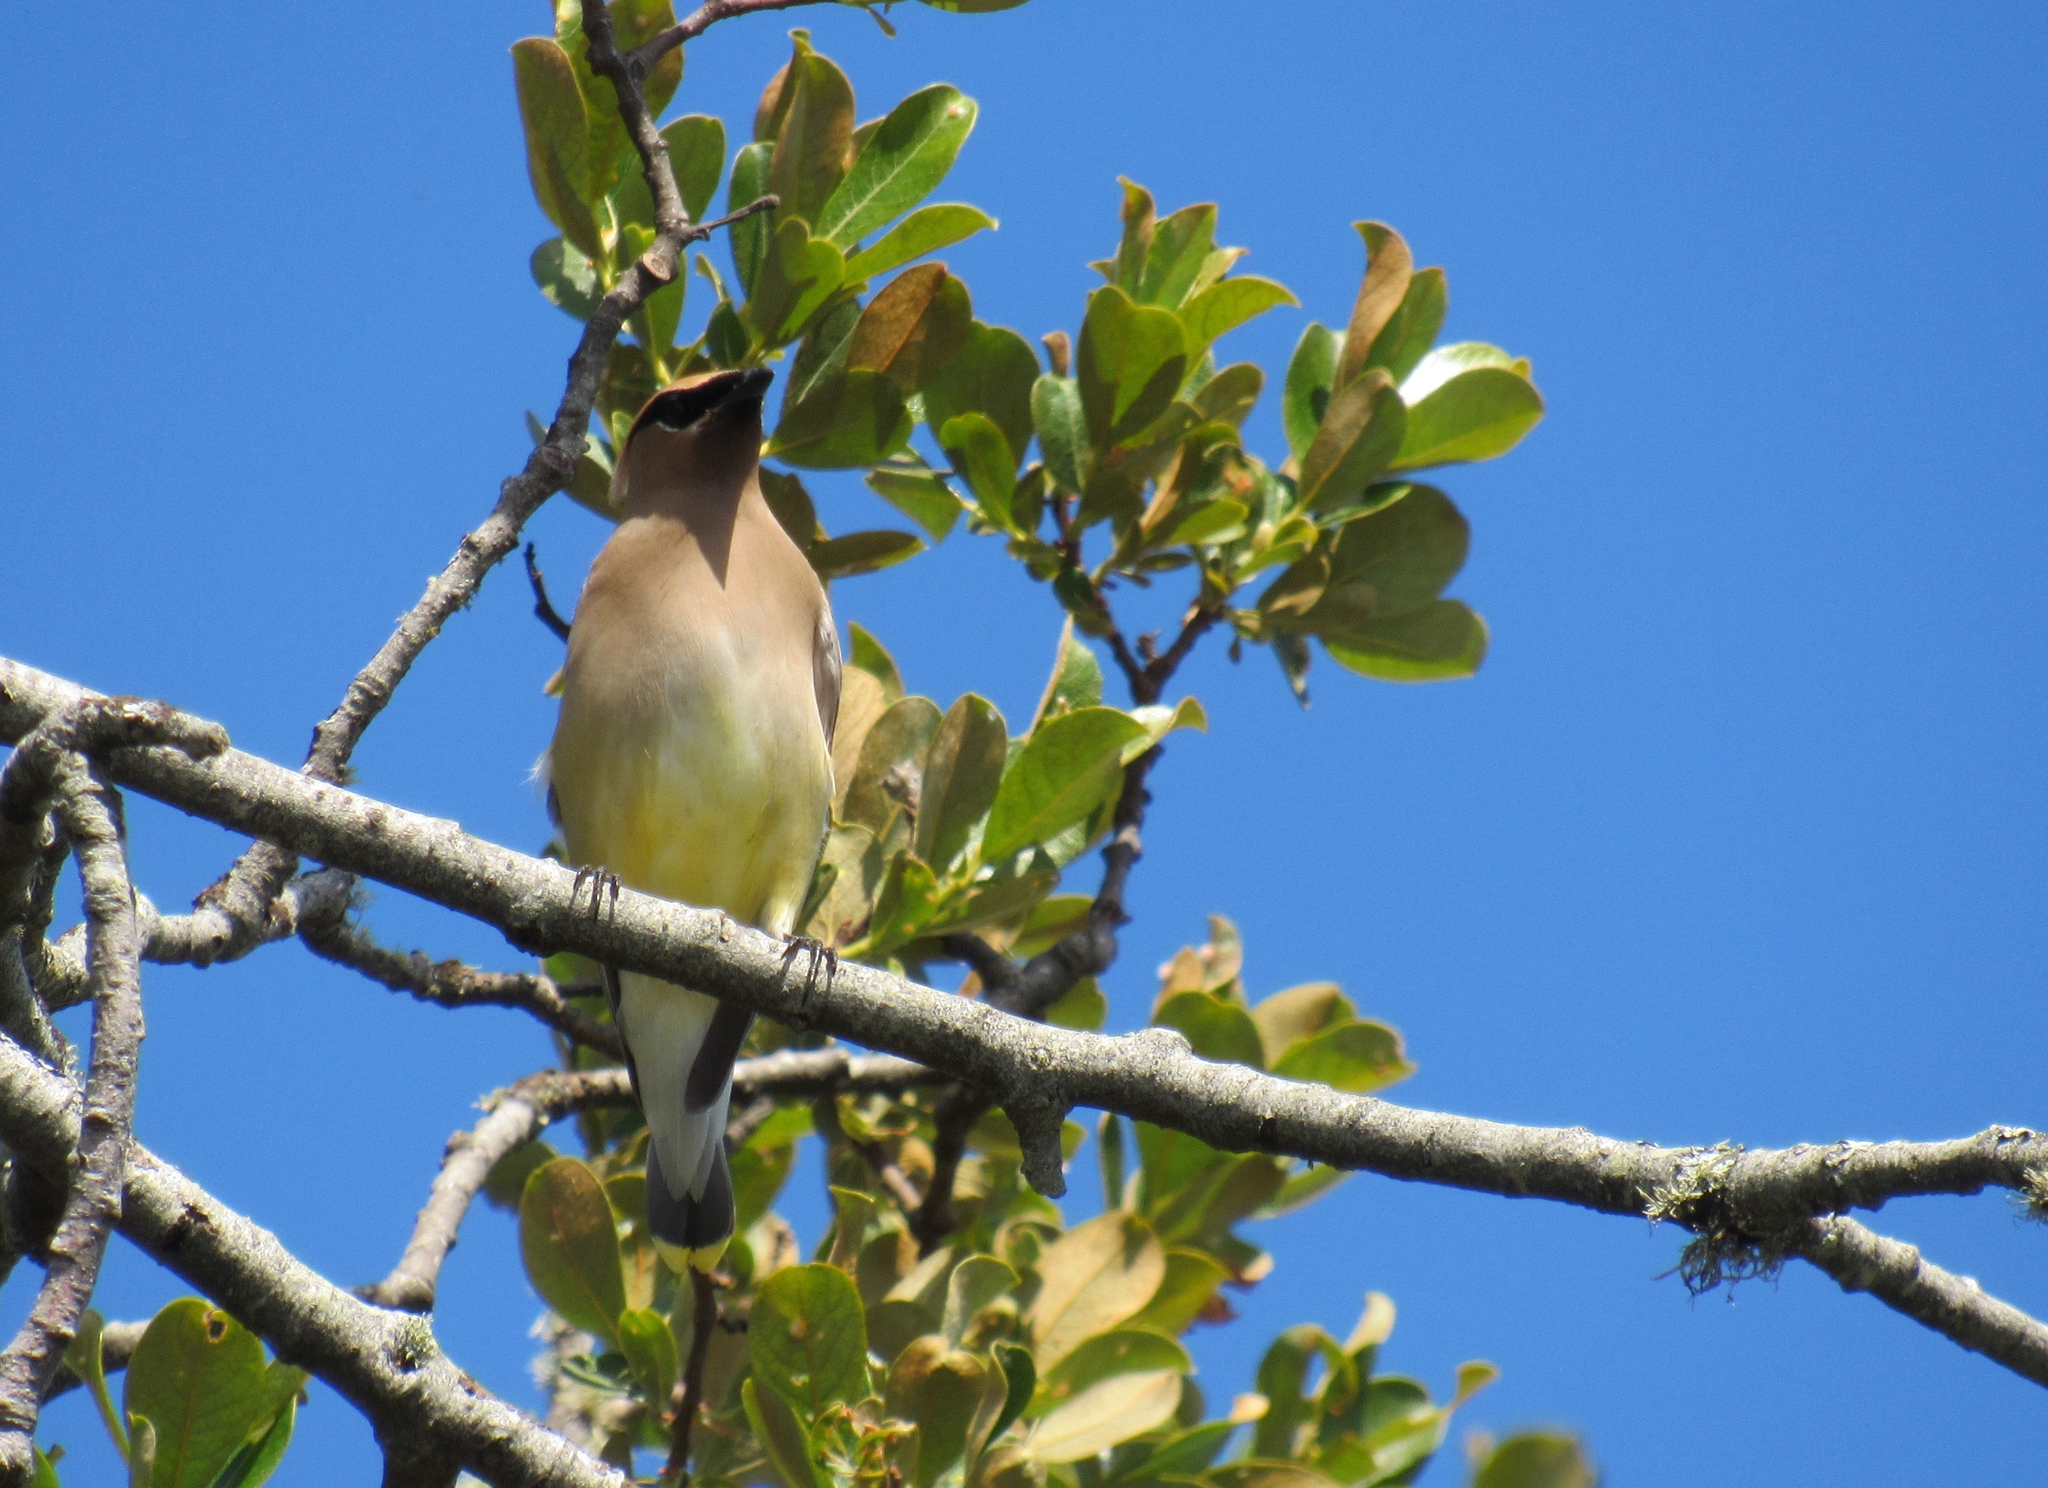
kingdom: Animalia
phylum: Chordata
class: Aves
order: Passeriformes
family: Bombycillidae
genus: Bombycilla
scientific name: Bombycilla cedrorum
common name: Cedar waxwing
